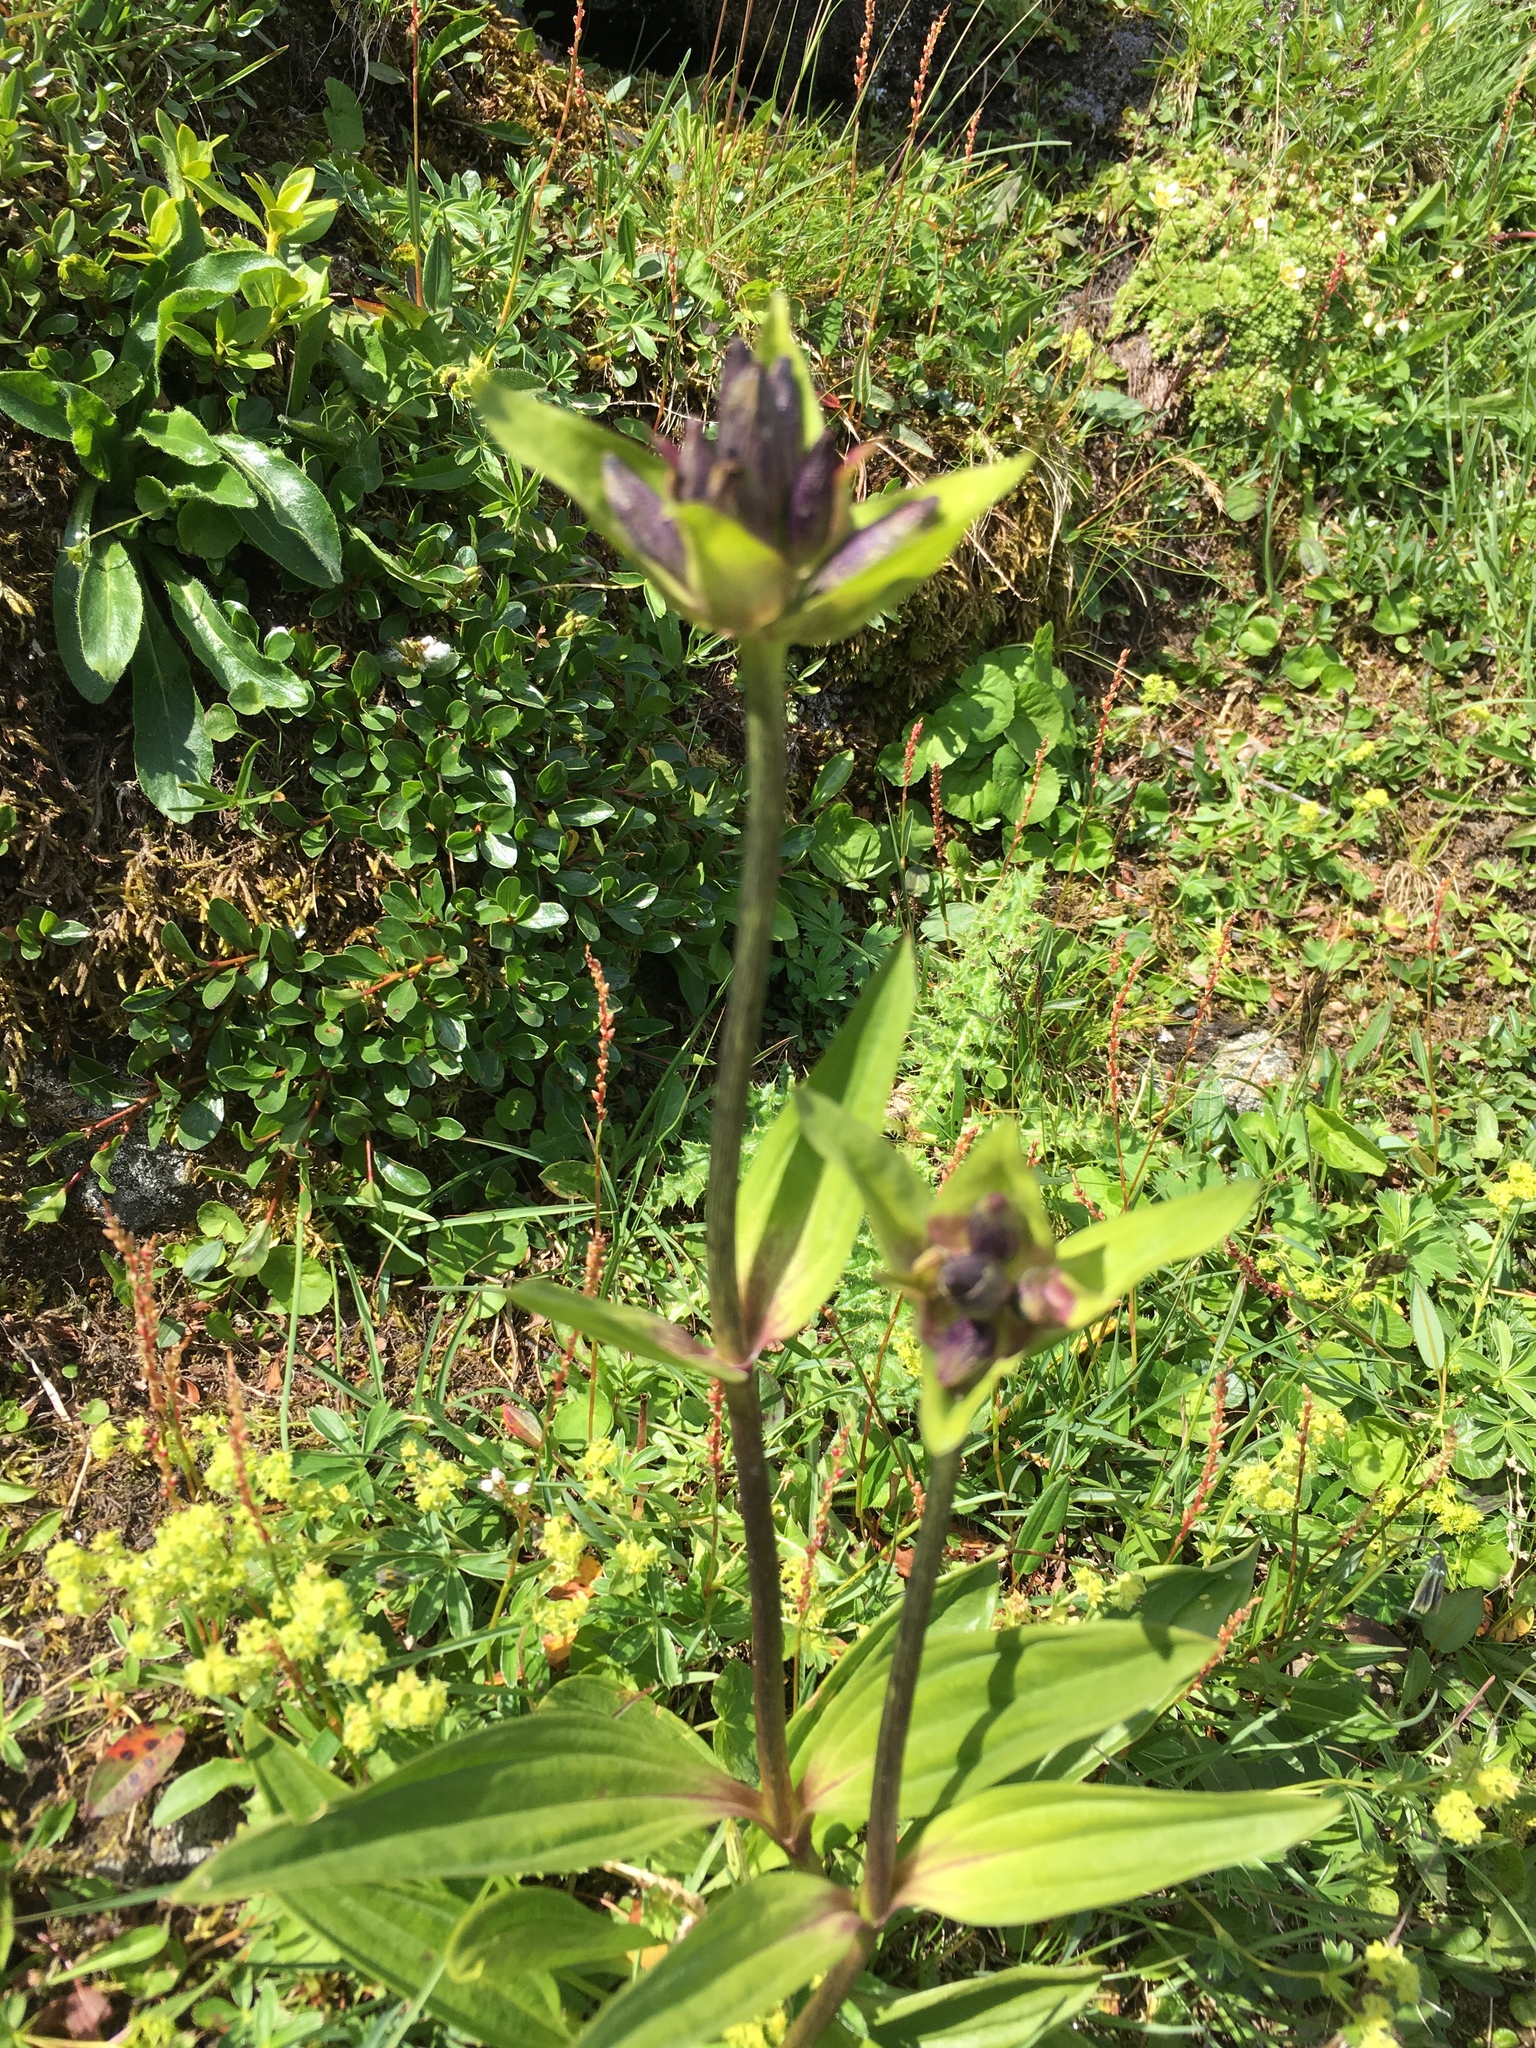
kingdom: Plantae
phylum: Tracheophyta
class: Magnoliopsida
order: Gentianales
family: Gentianaceae
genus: Gentiana
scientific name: Gentiana purpurea
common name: Purple gentian
